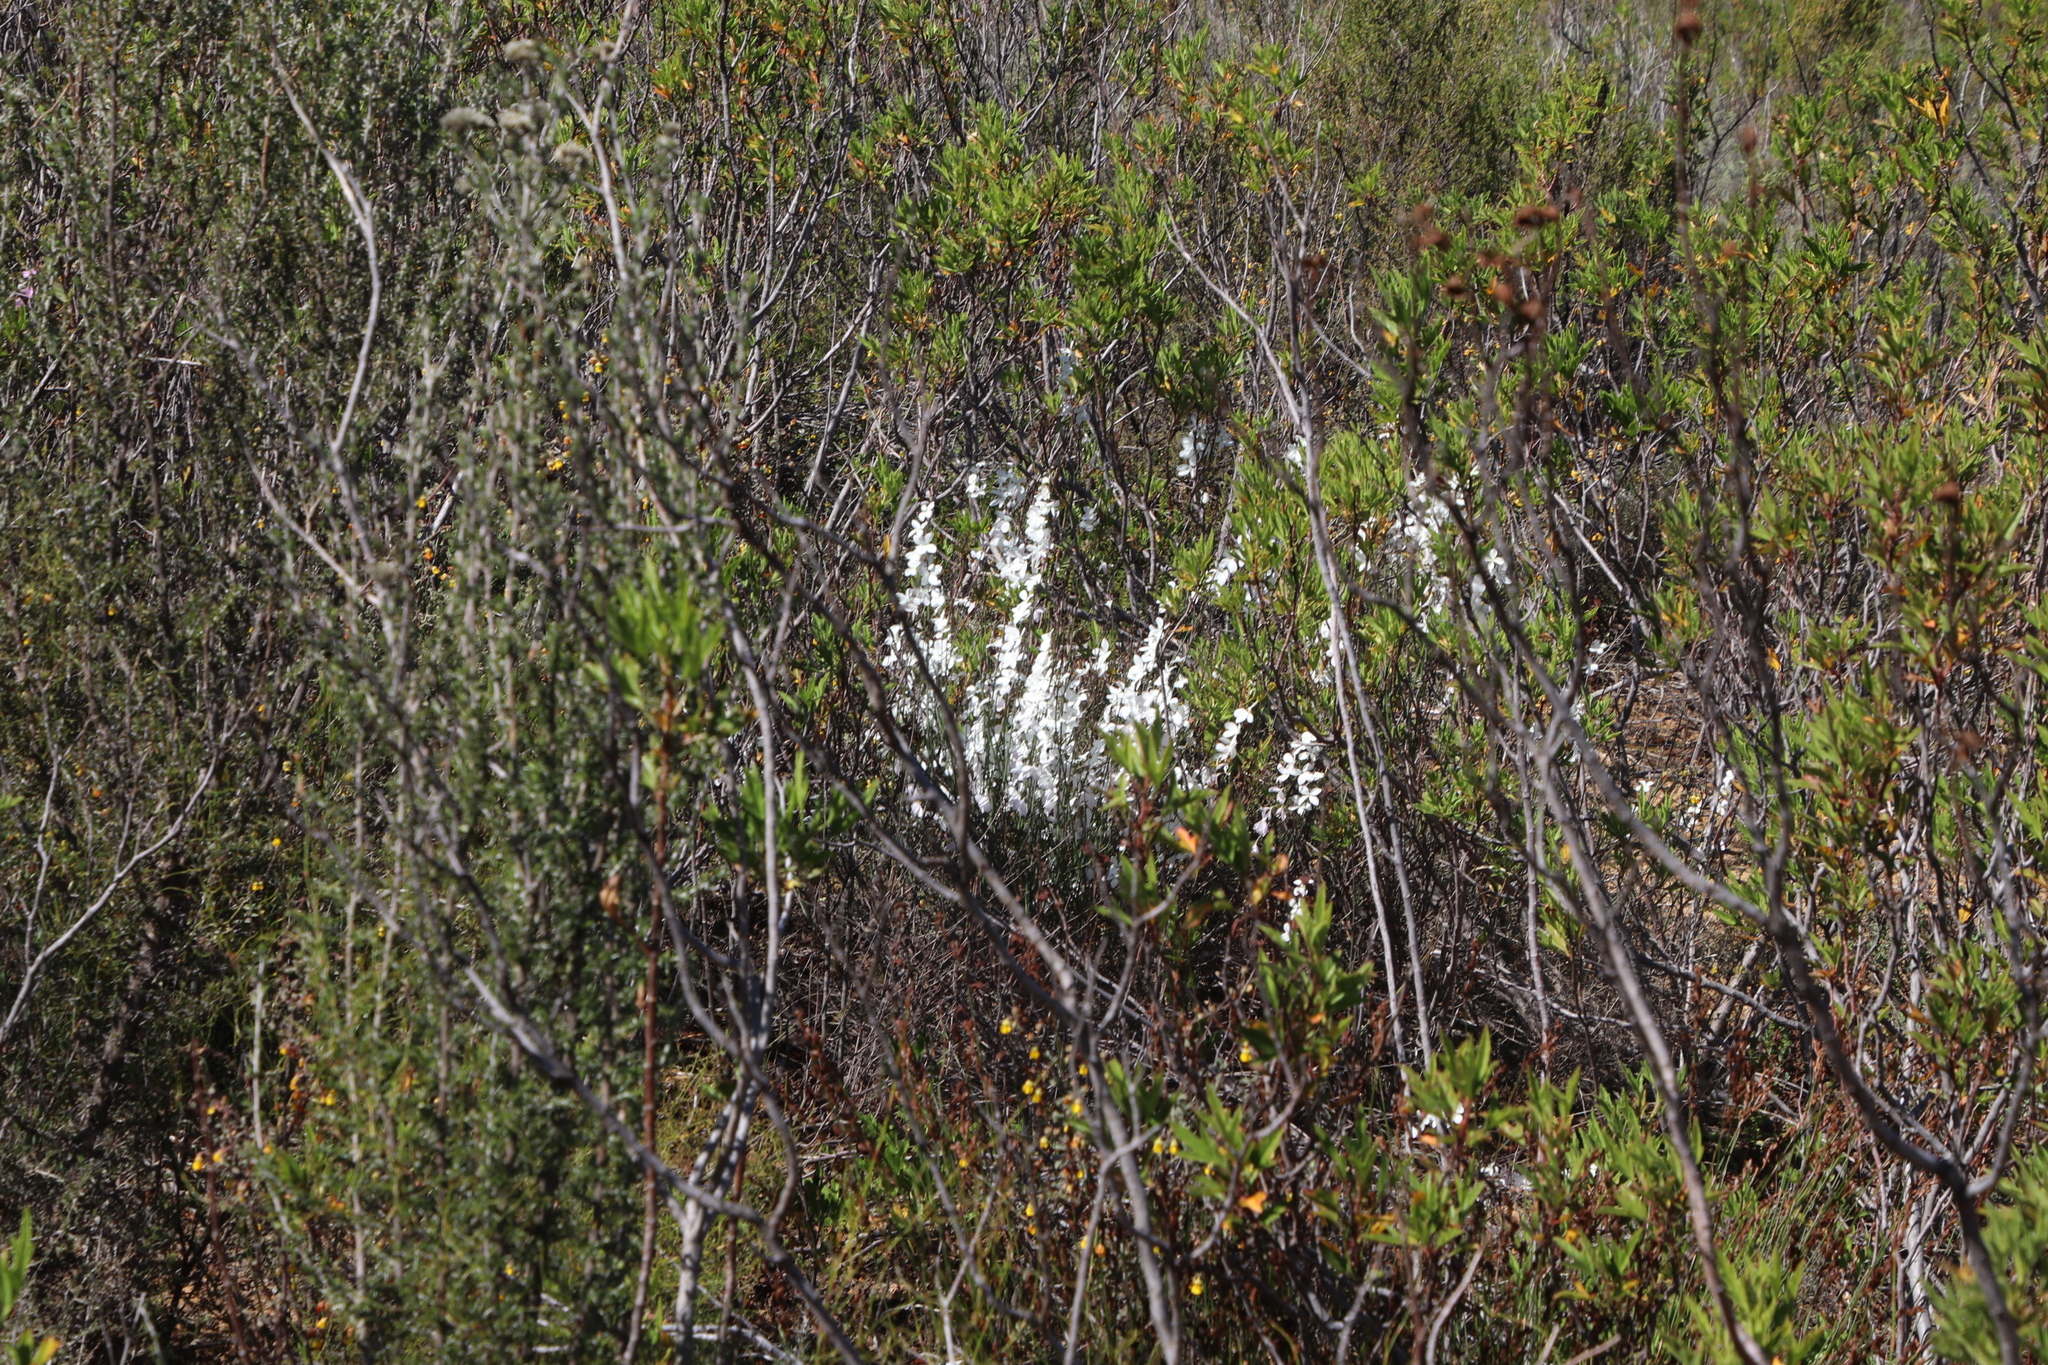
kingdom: Plantae
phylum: Tracheophyta
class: Magnoliopsida
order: Brassicales
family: Brassicaceae
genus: Heliophila
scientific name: Heliophila juncea
